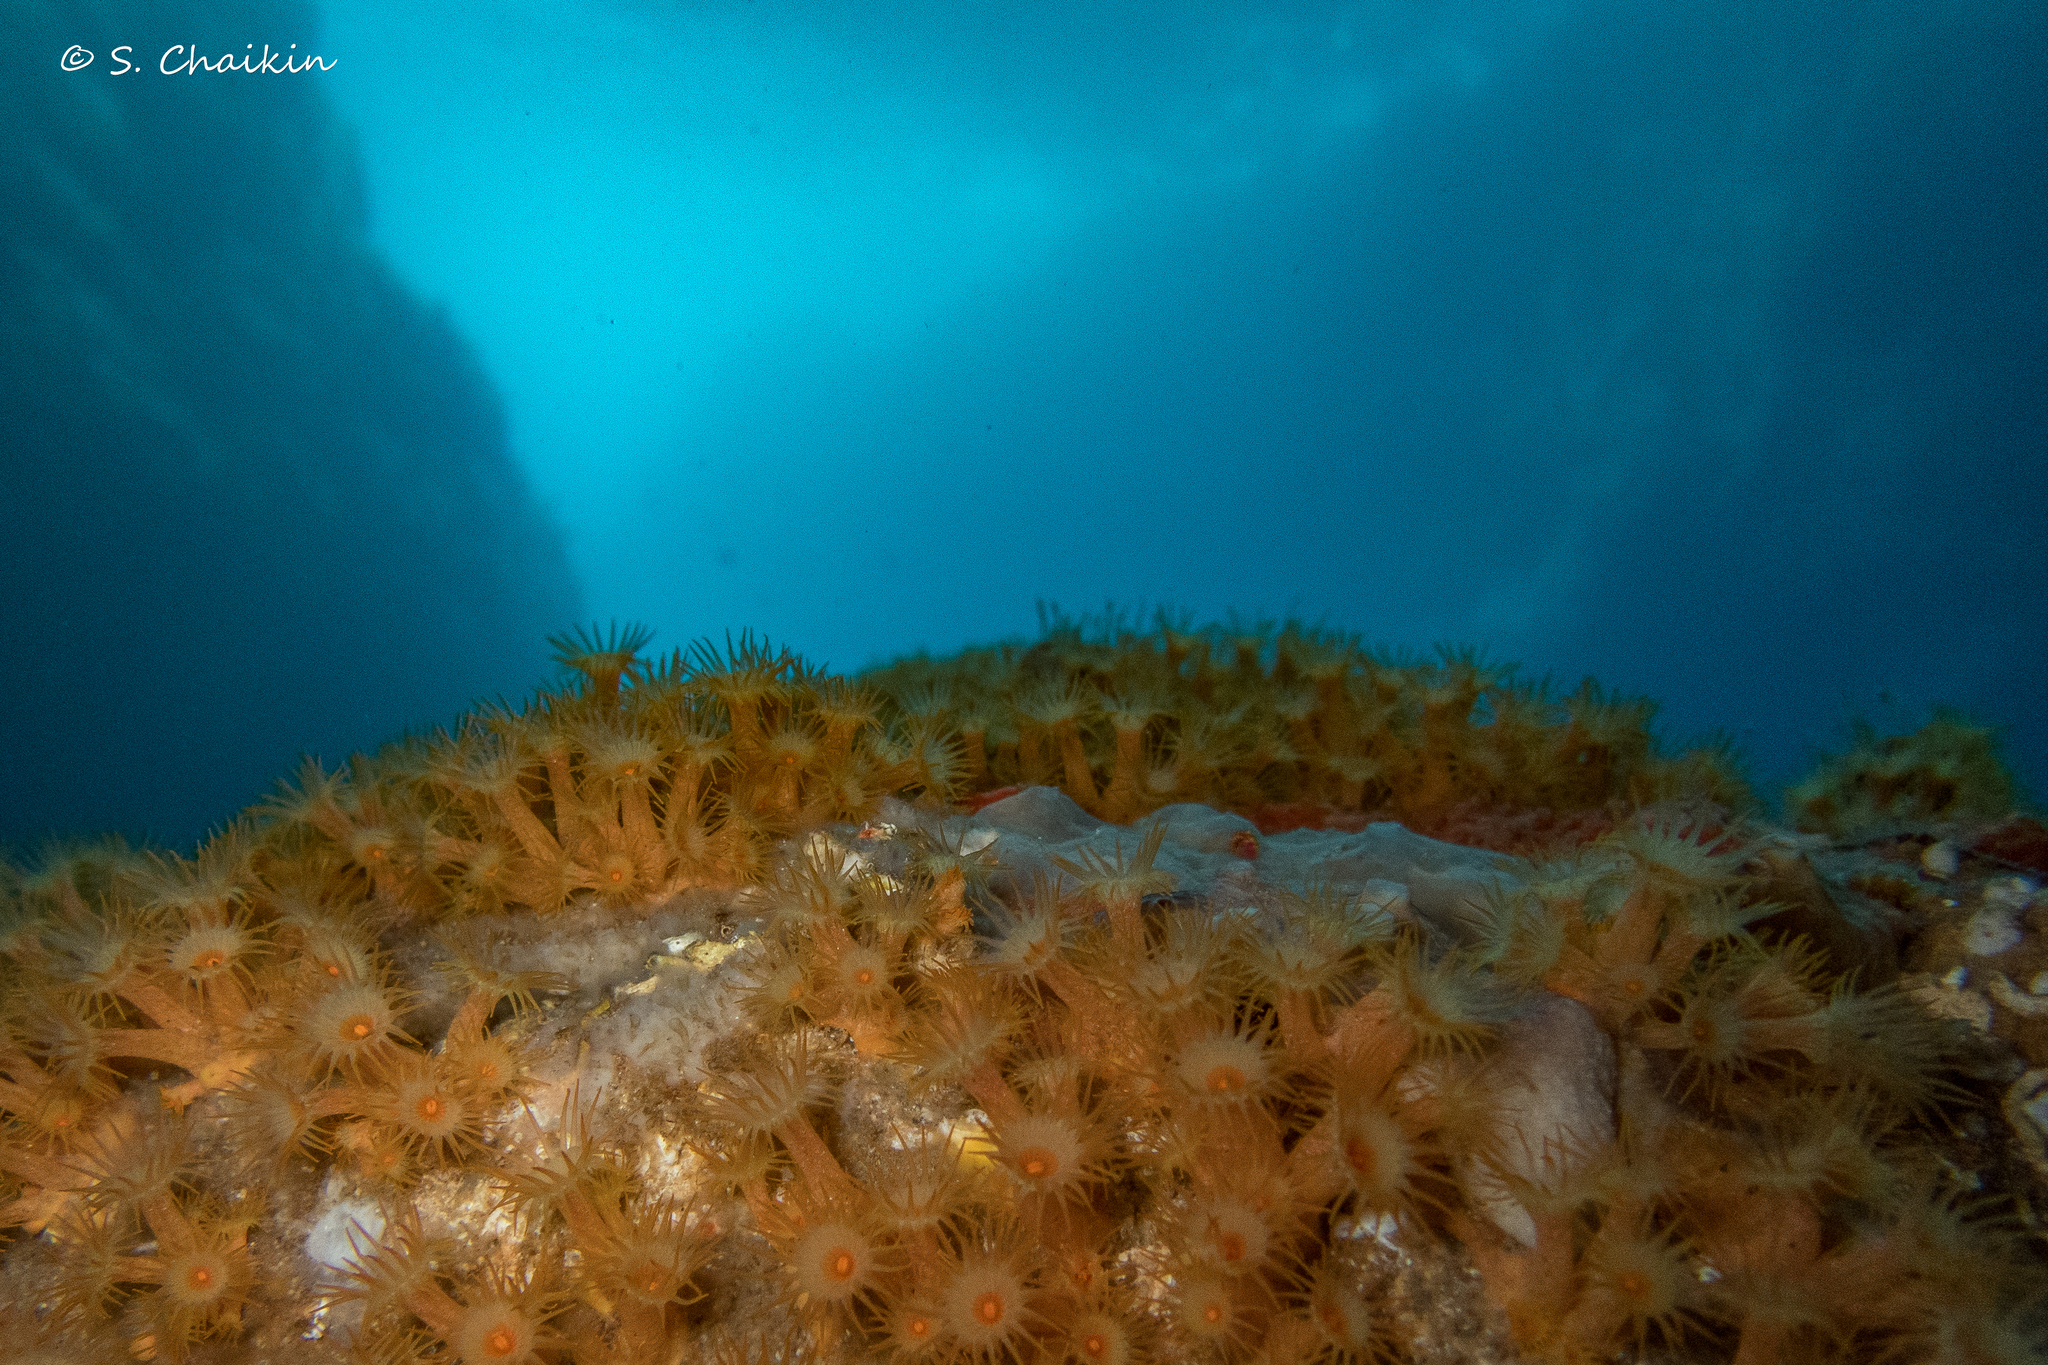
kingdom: Animalia
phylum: Cnidaria
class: Anthozoa
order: Zoantharia
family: Parazoanthidae
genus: Parazoanthus
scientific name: Parazoanthus axinellae
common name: Yellow cluster anemone
